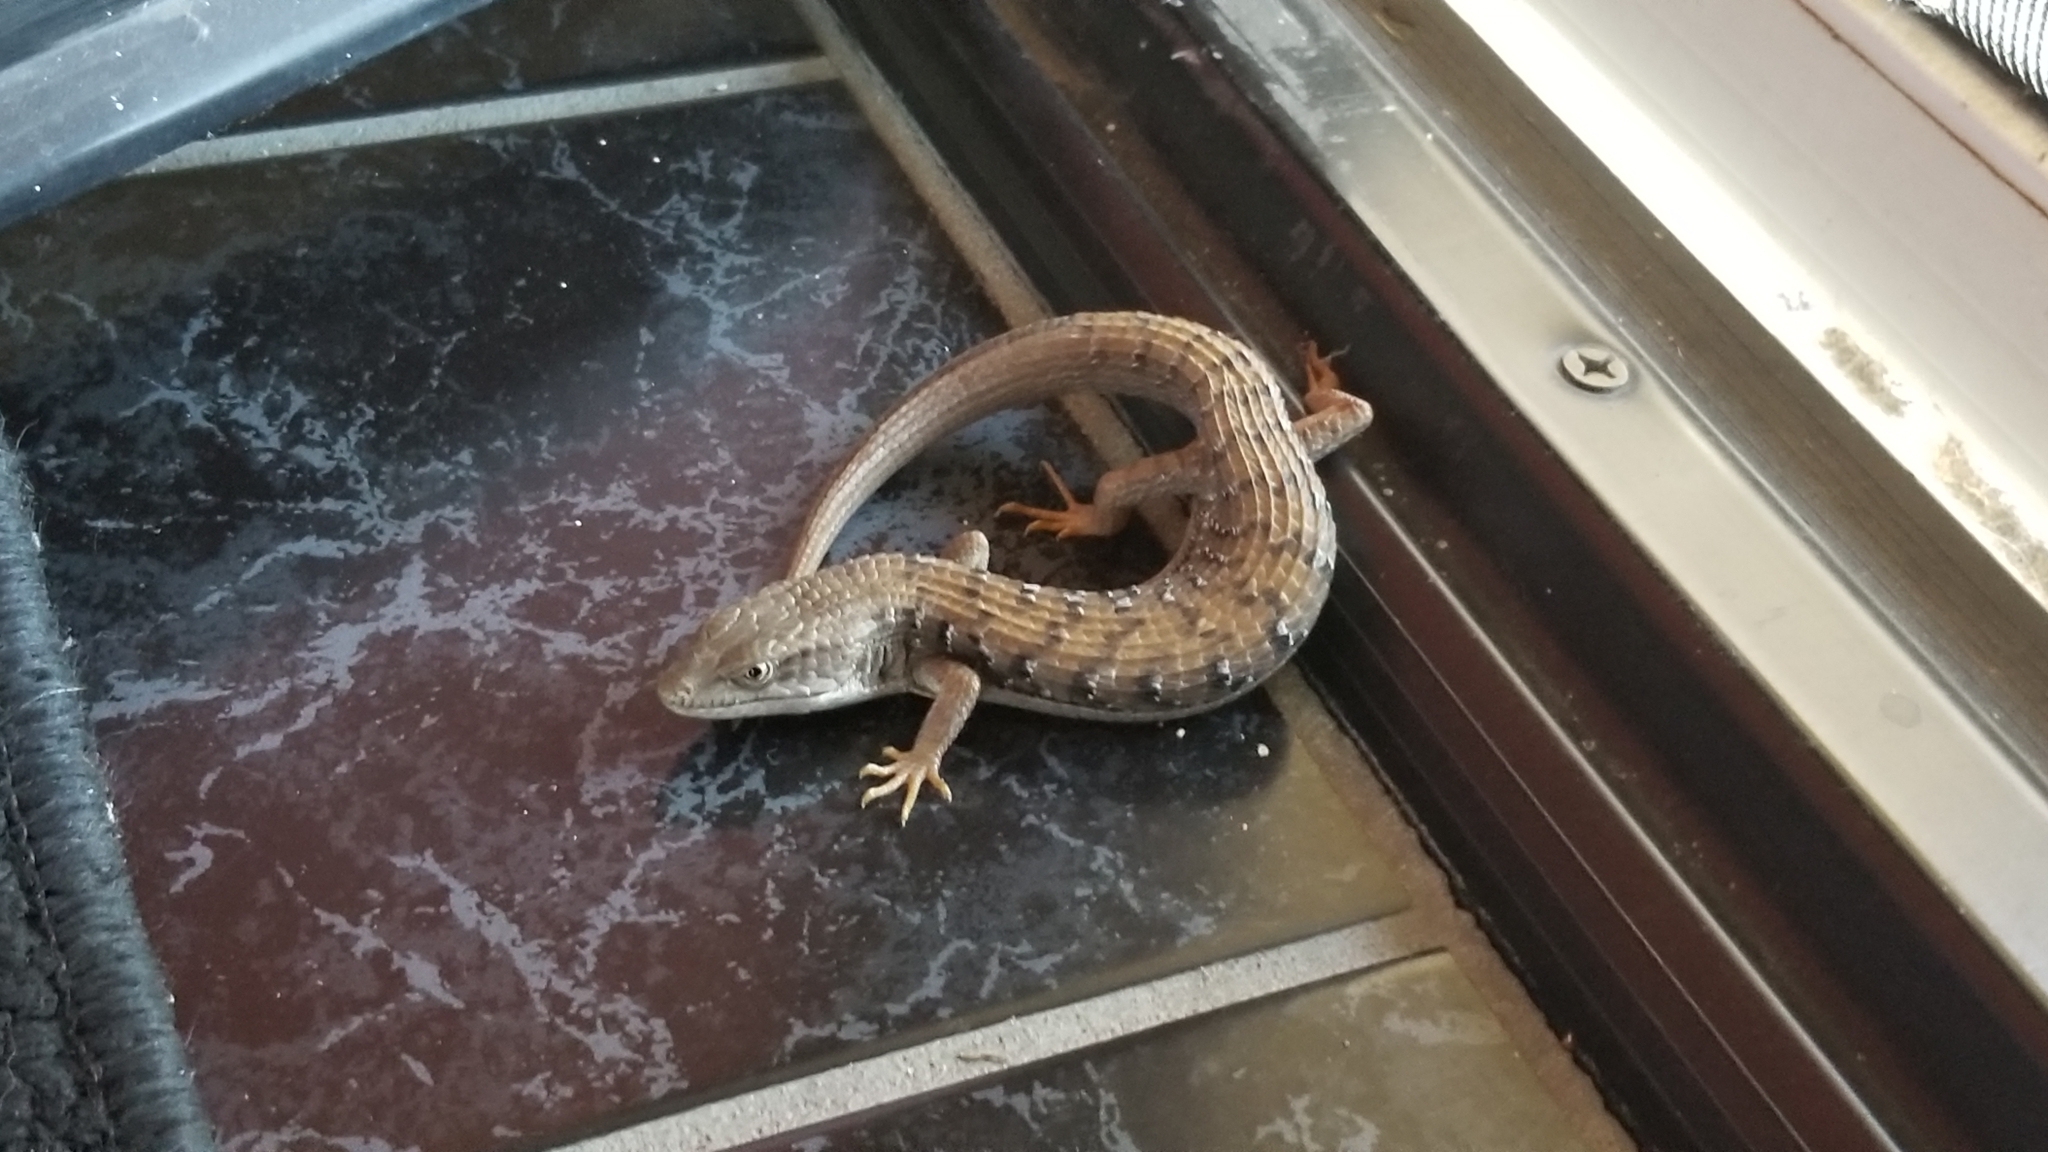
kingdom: Animalia
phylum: Chordata
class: Squamata
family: Anguidae
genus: Elgaria
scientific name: Elgaria multicarinata
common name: Southern alligator lizard
